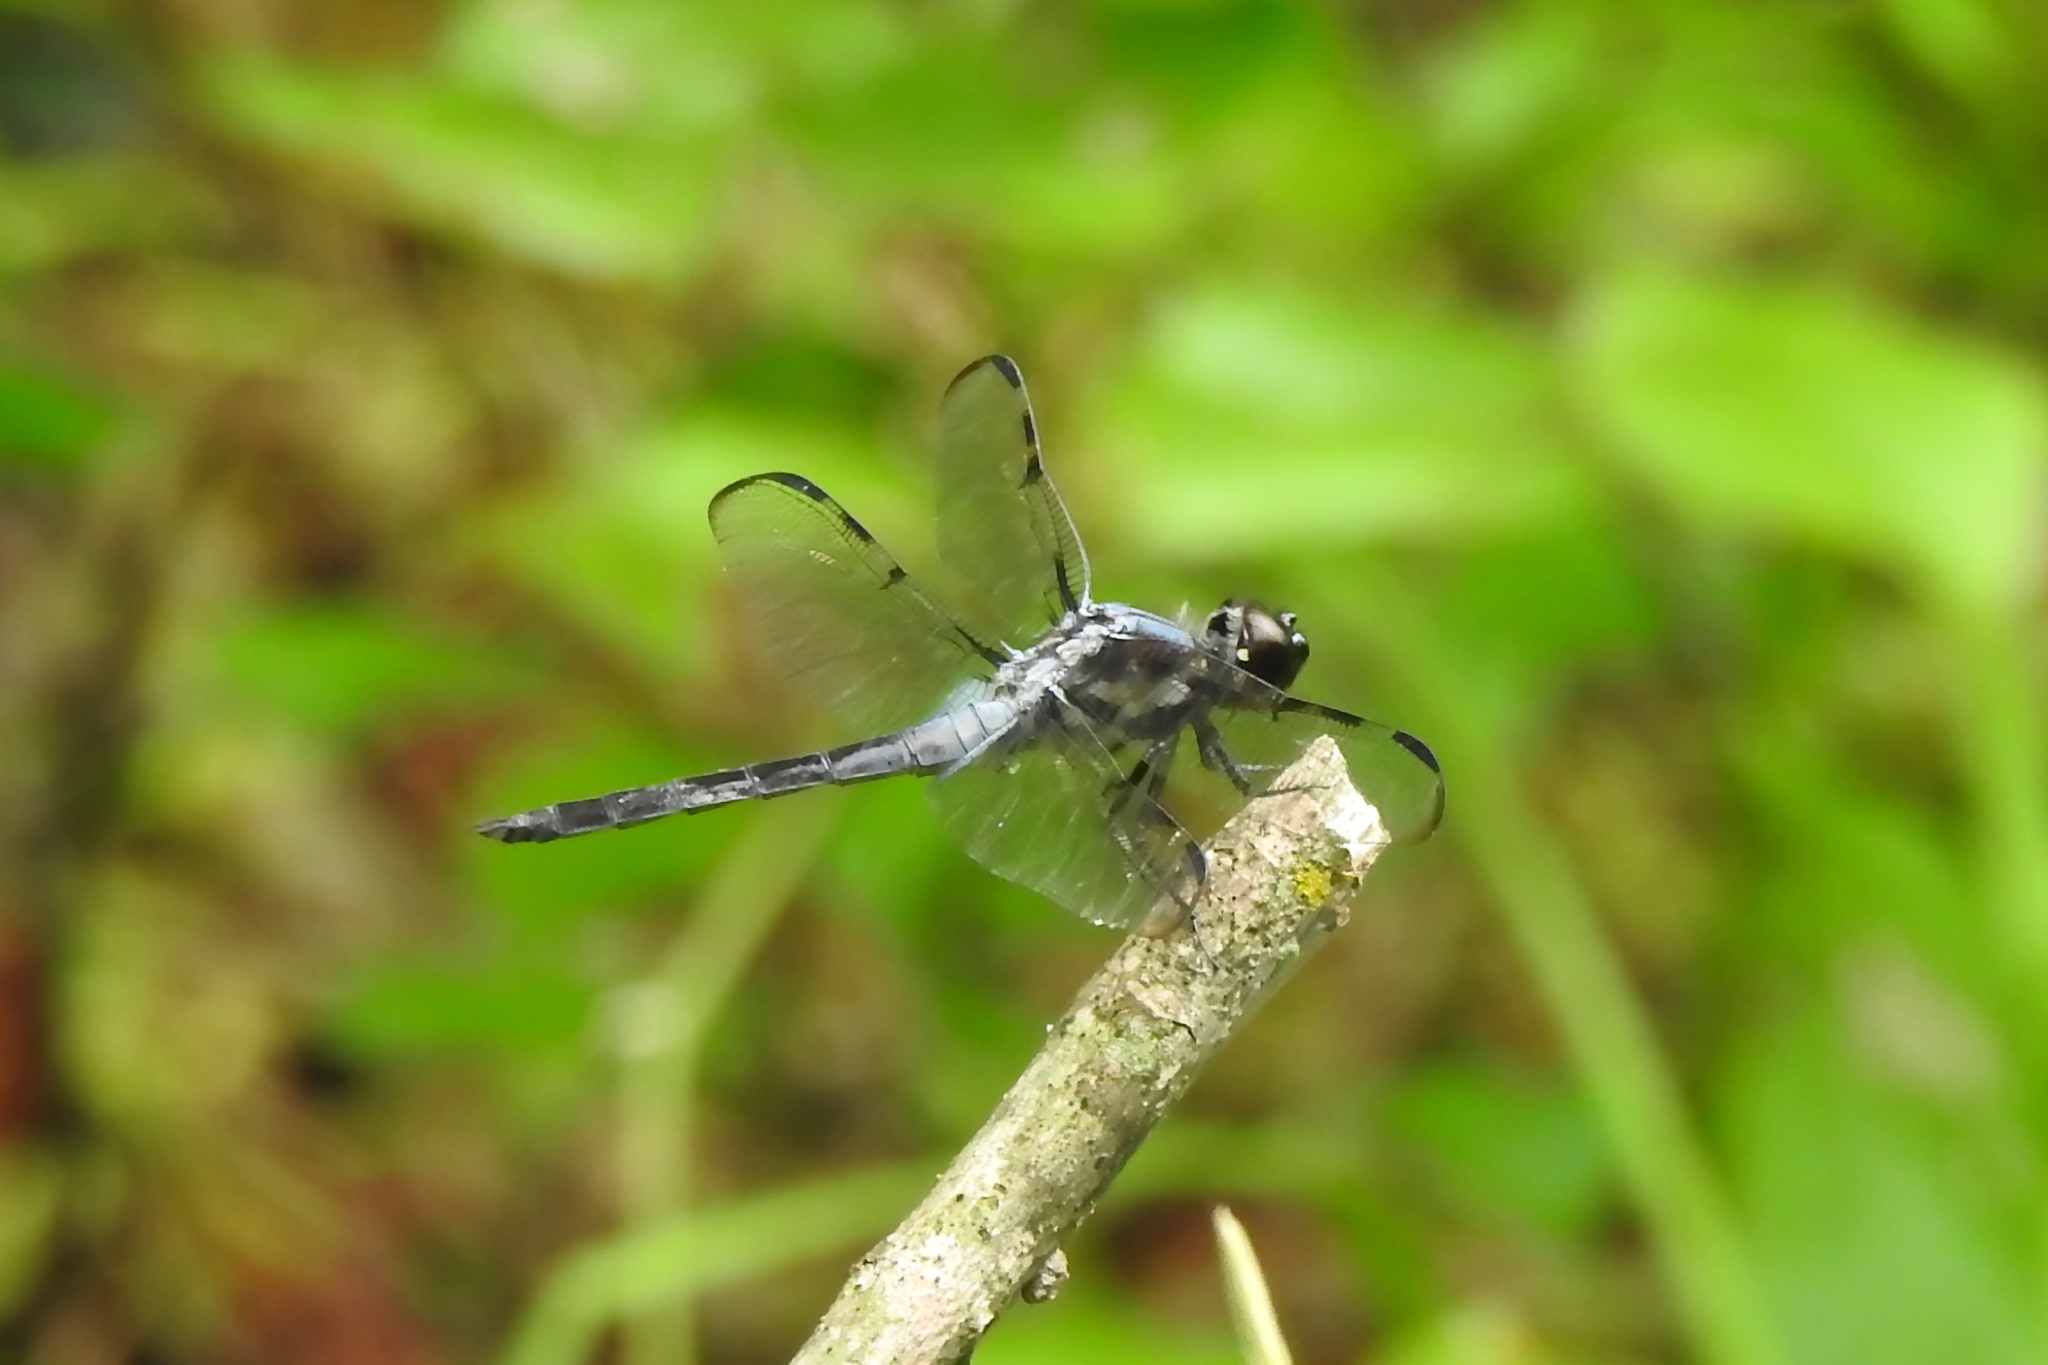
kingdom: Animalia
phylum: Arthropoda
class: Insecta
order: Odonata
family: Libellulidae
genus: Libellula
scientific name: Libellula axilena
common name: Bar-winged skimmer
